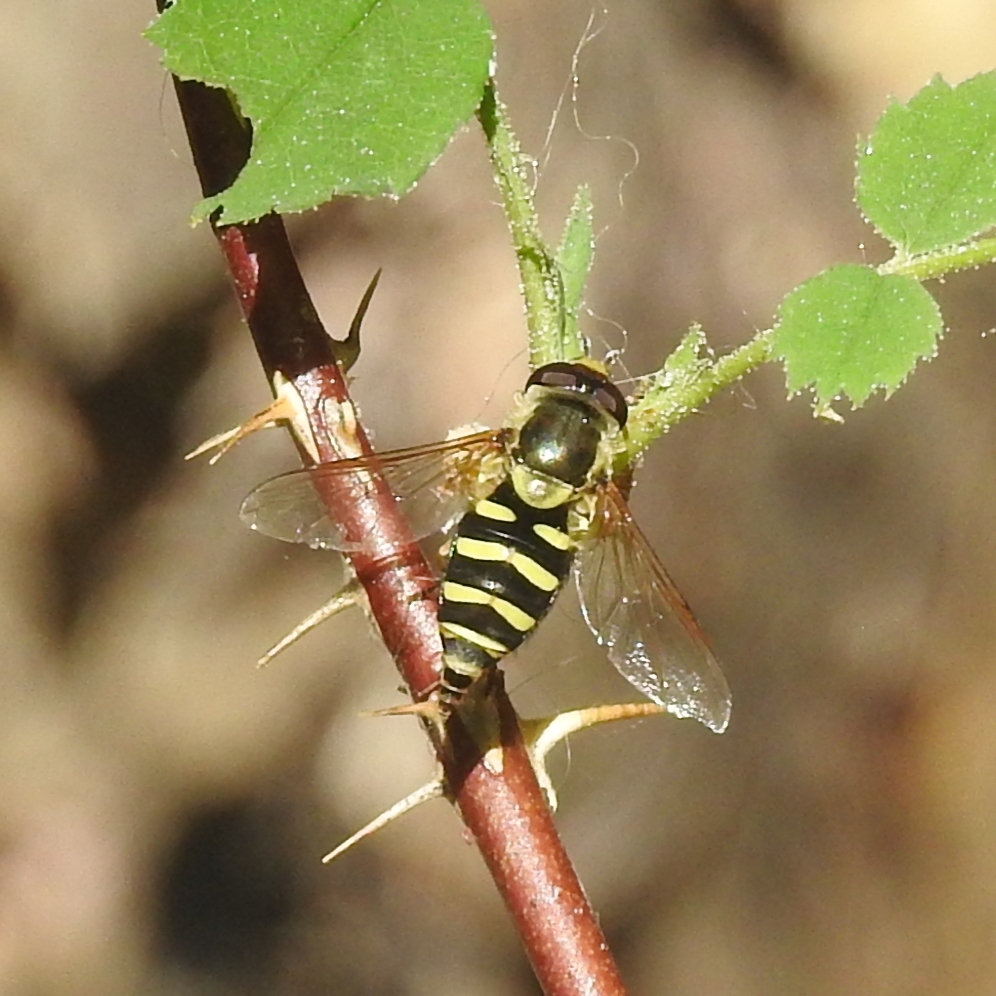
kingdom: Animalia
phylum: Arthropoda
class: Insecta
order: Diptera
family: Syrphidae
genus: Syrphus
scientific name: Syrphus opinator
